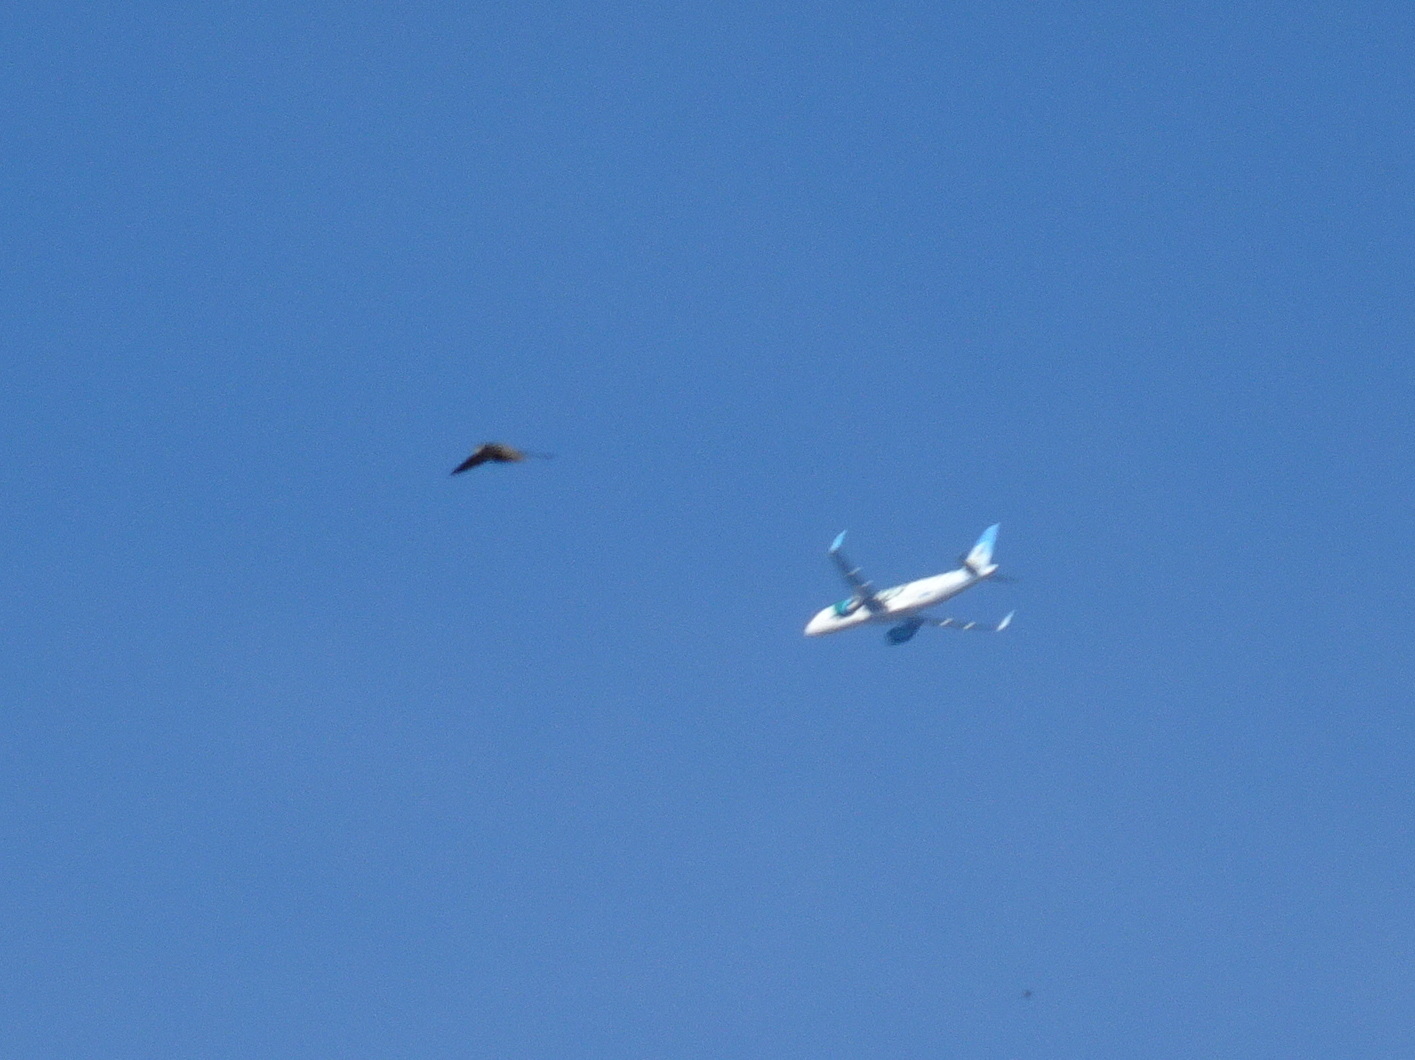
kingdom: Animalia
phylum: Chordata
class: Aves
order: Apodiformes
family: Apodidae
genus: Chaetura
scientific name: Chaetura pelagica
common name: Chimney swift
